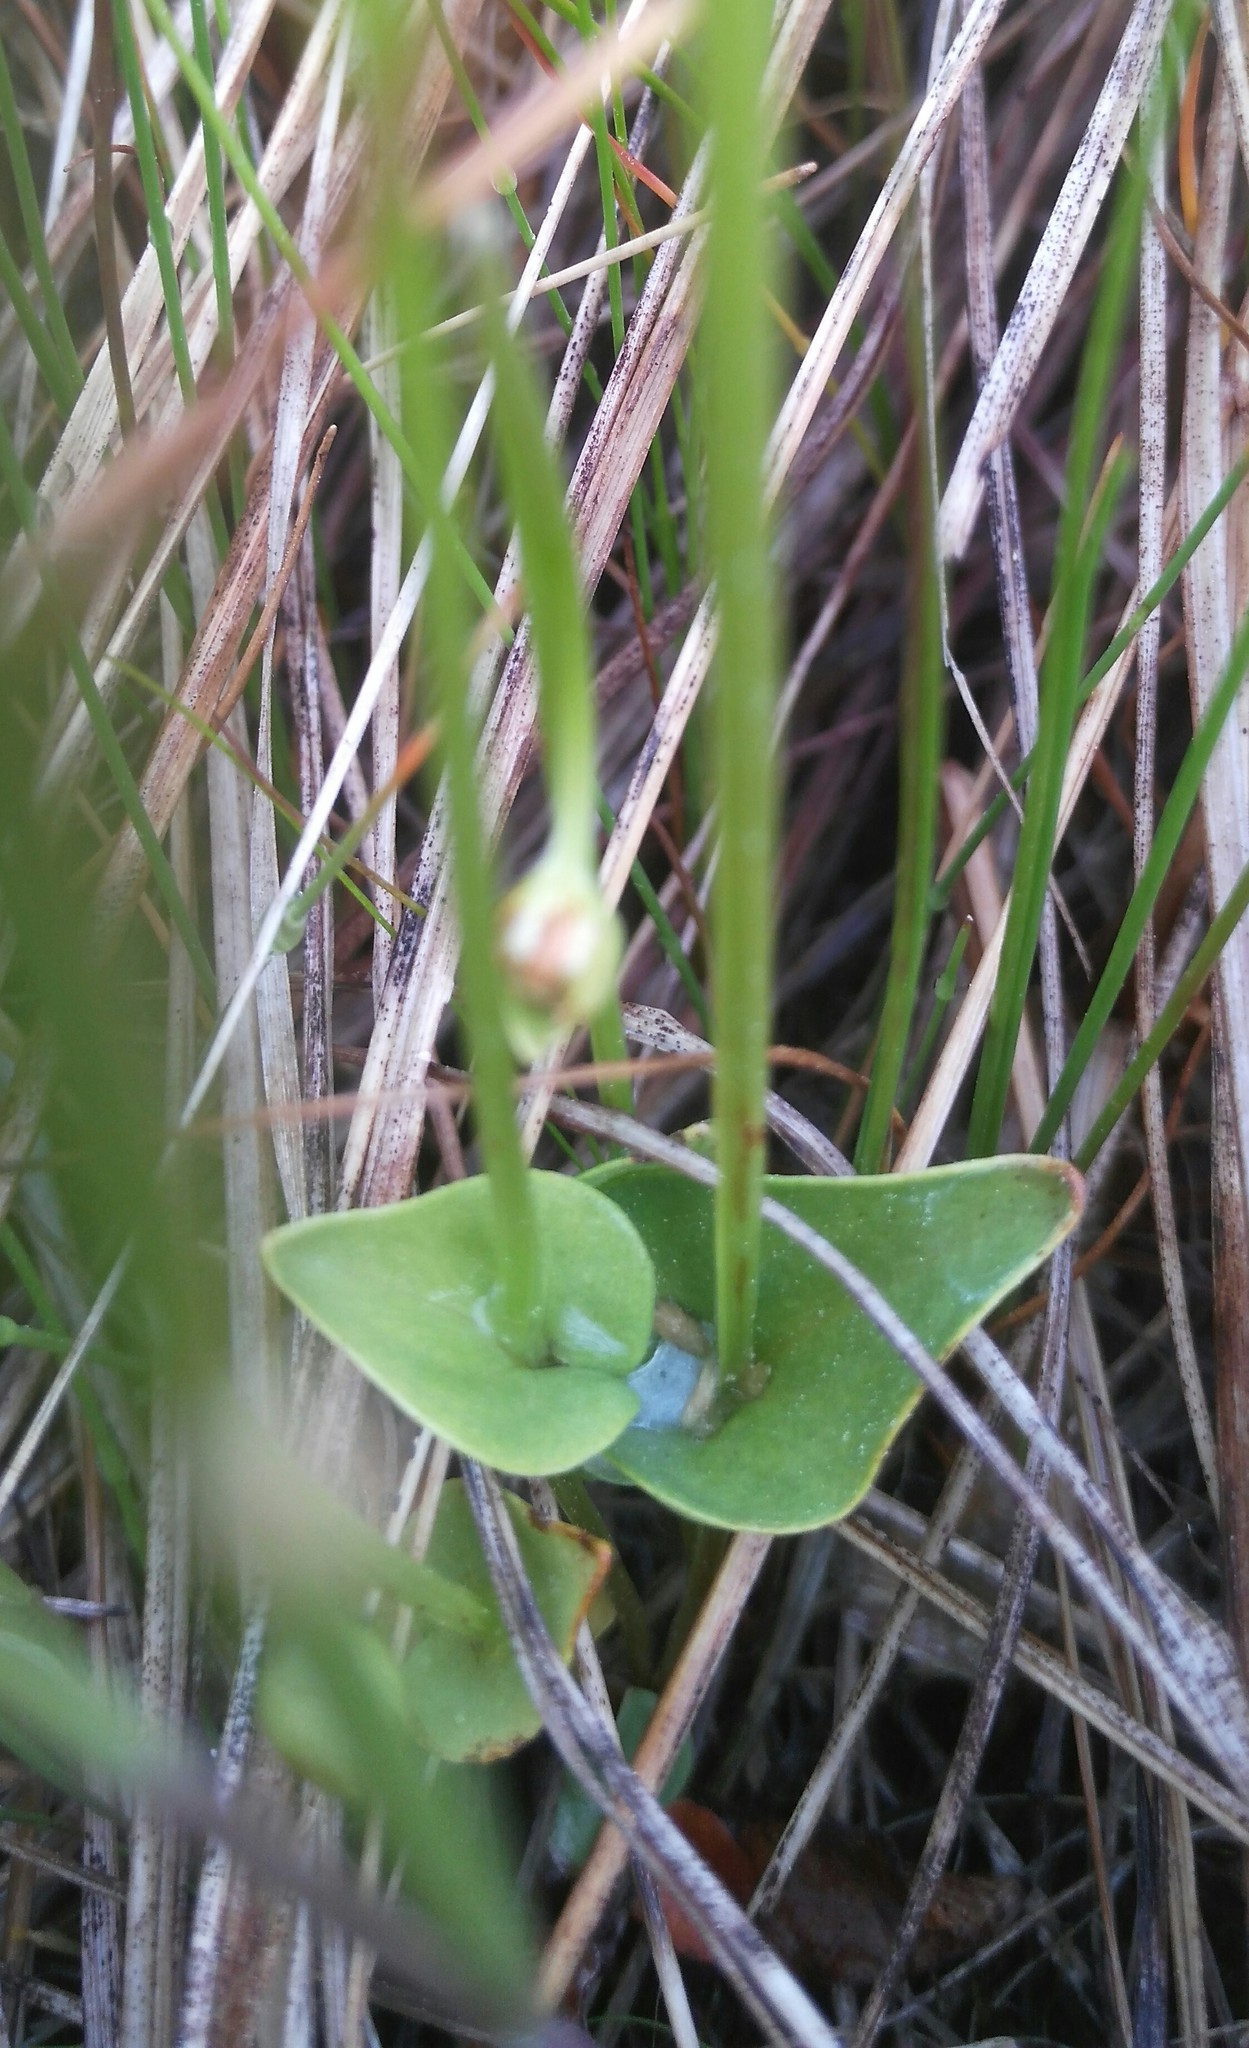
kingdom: Plantae
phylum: Tracheophyta
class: Magnoliopsida
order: Celastrales
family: Parnassiaceae
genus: Parnassia
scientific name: Parnassia palustris
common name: Grass-of-parnassus
